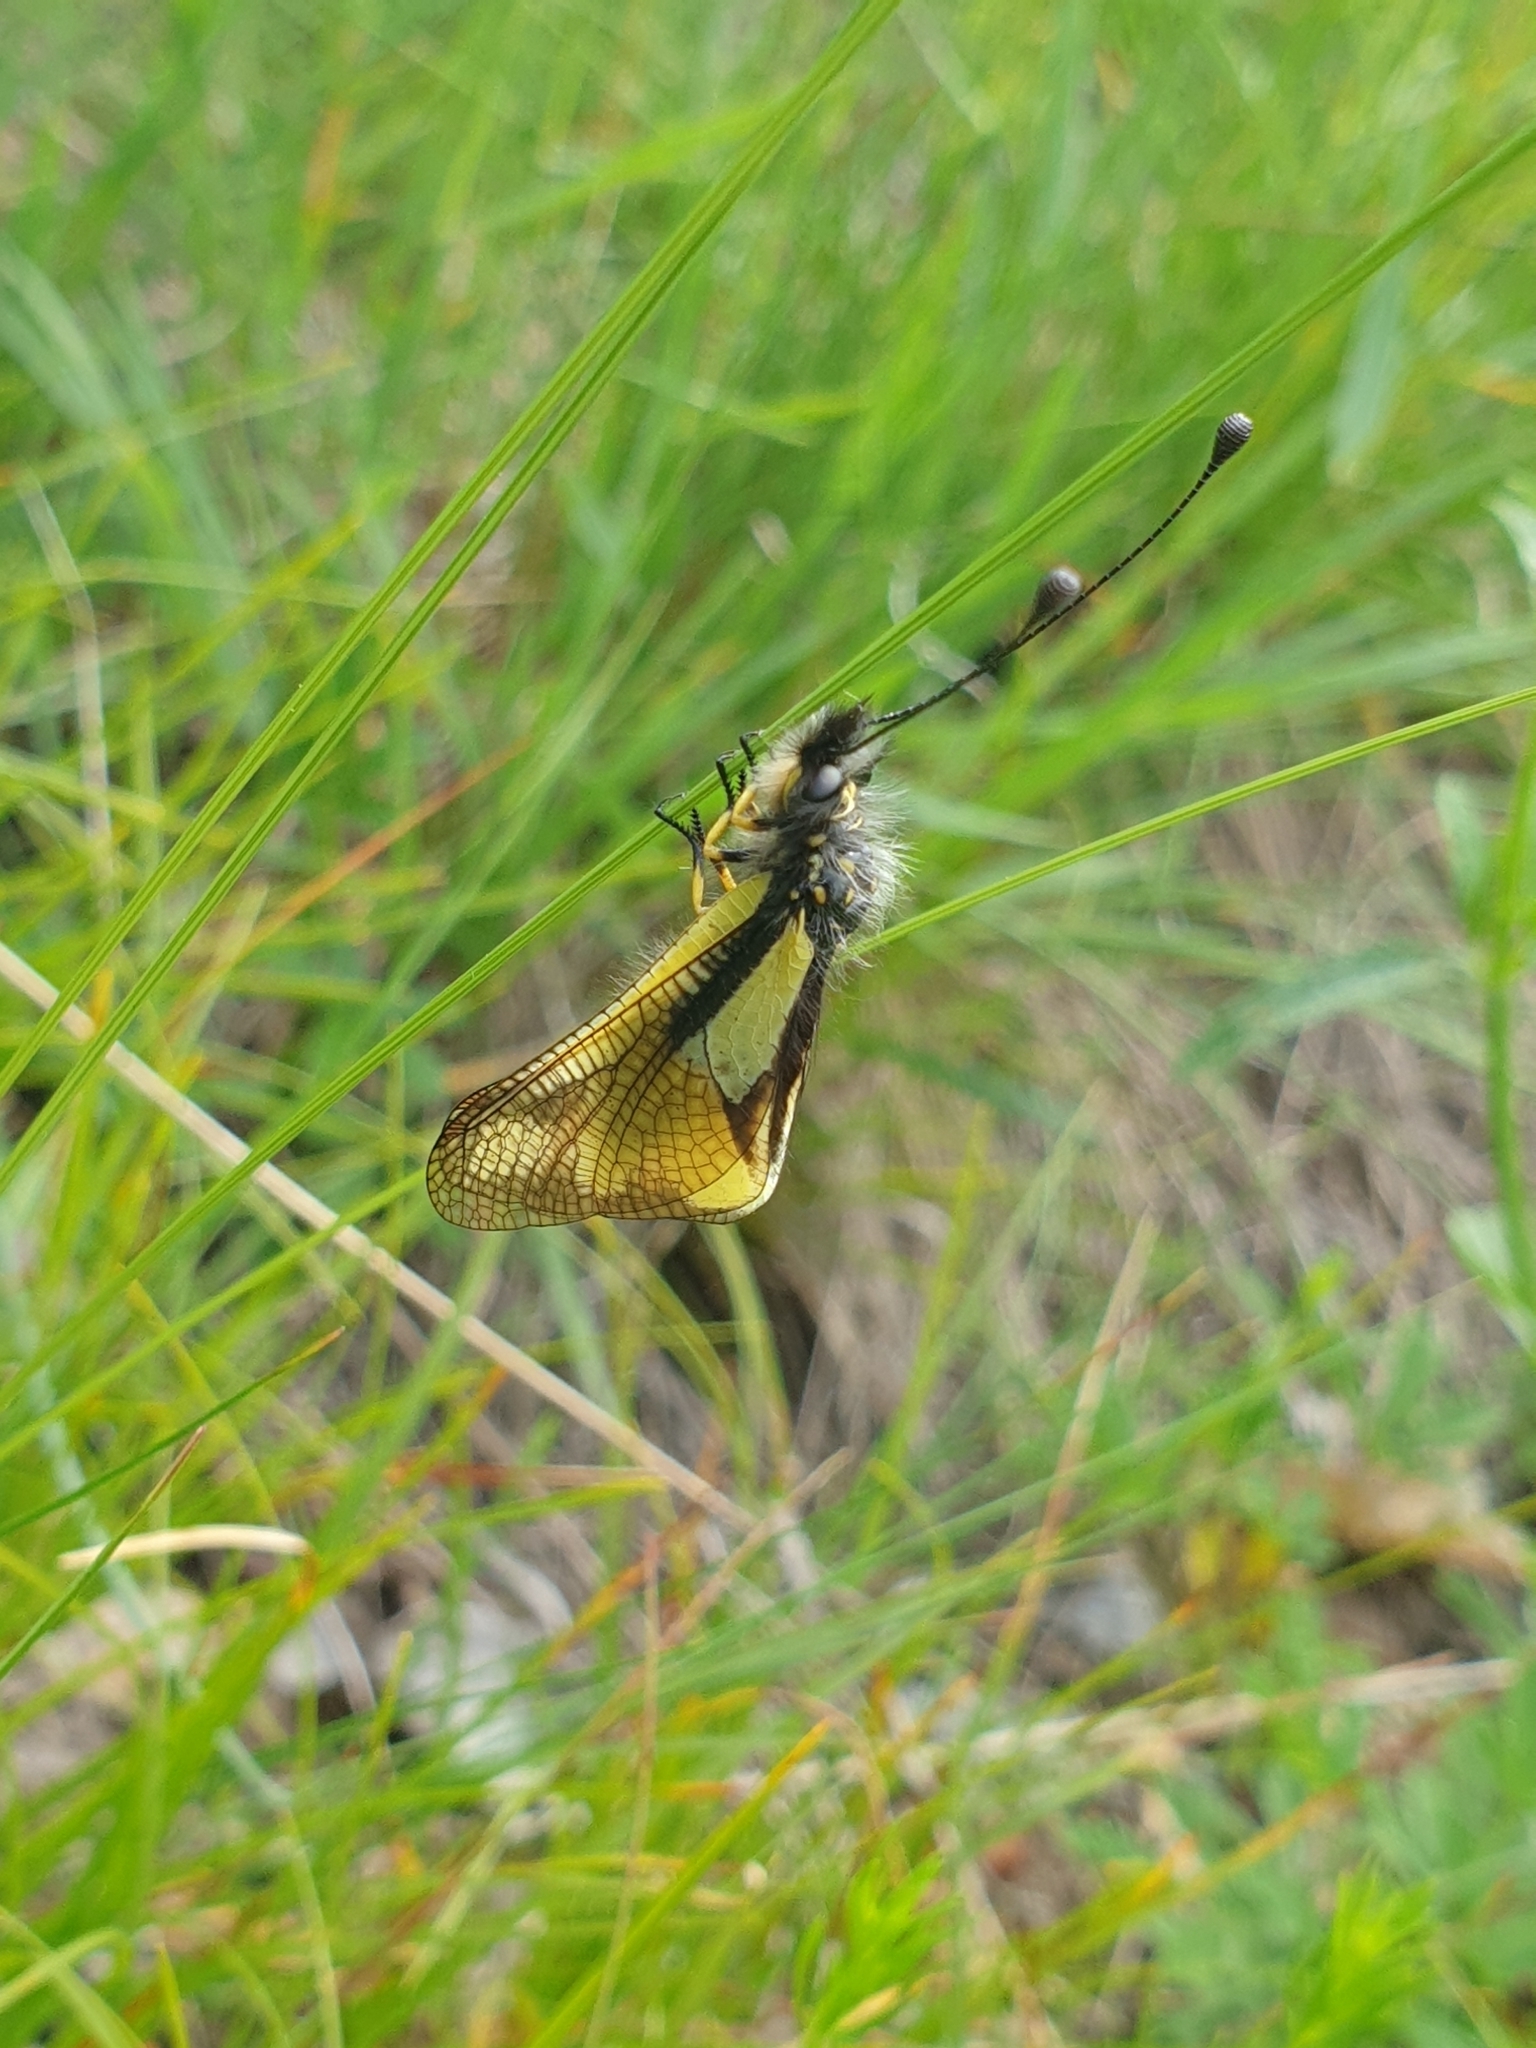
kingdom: Animalia
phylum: Arthropoda
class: Insecta
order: Neuroptera
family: Ascalaphidae
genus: Libelloides
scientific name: Libelloides coccajus
